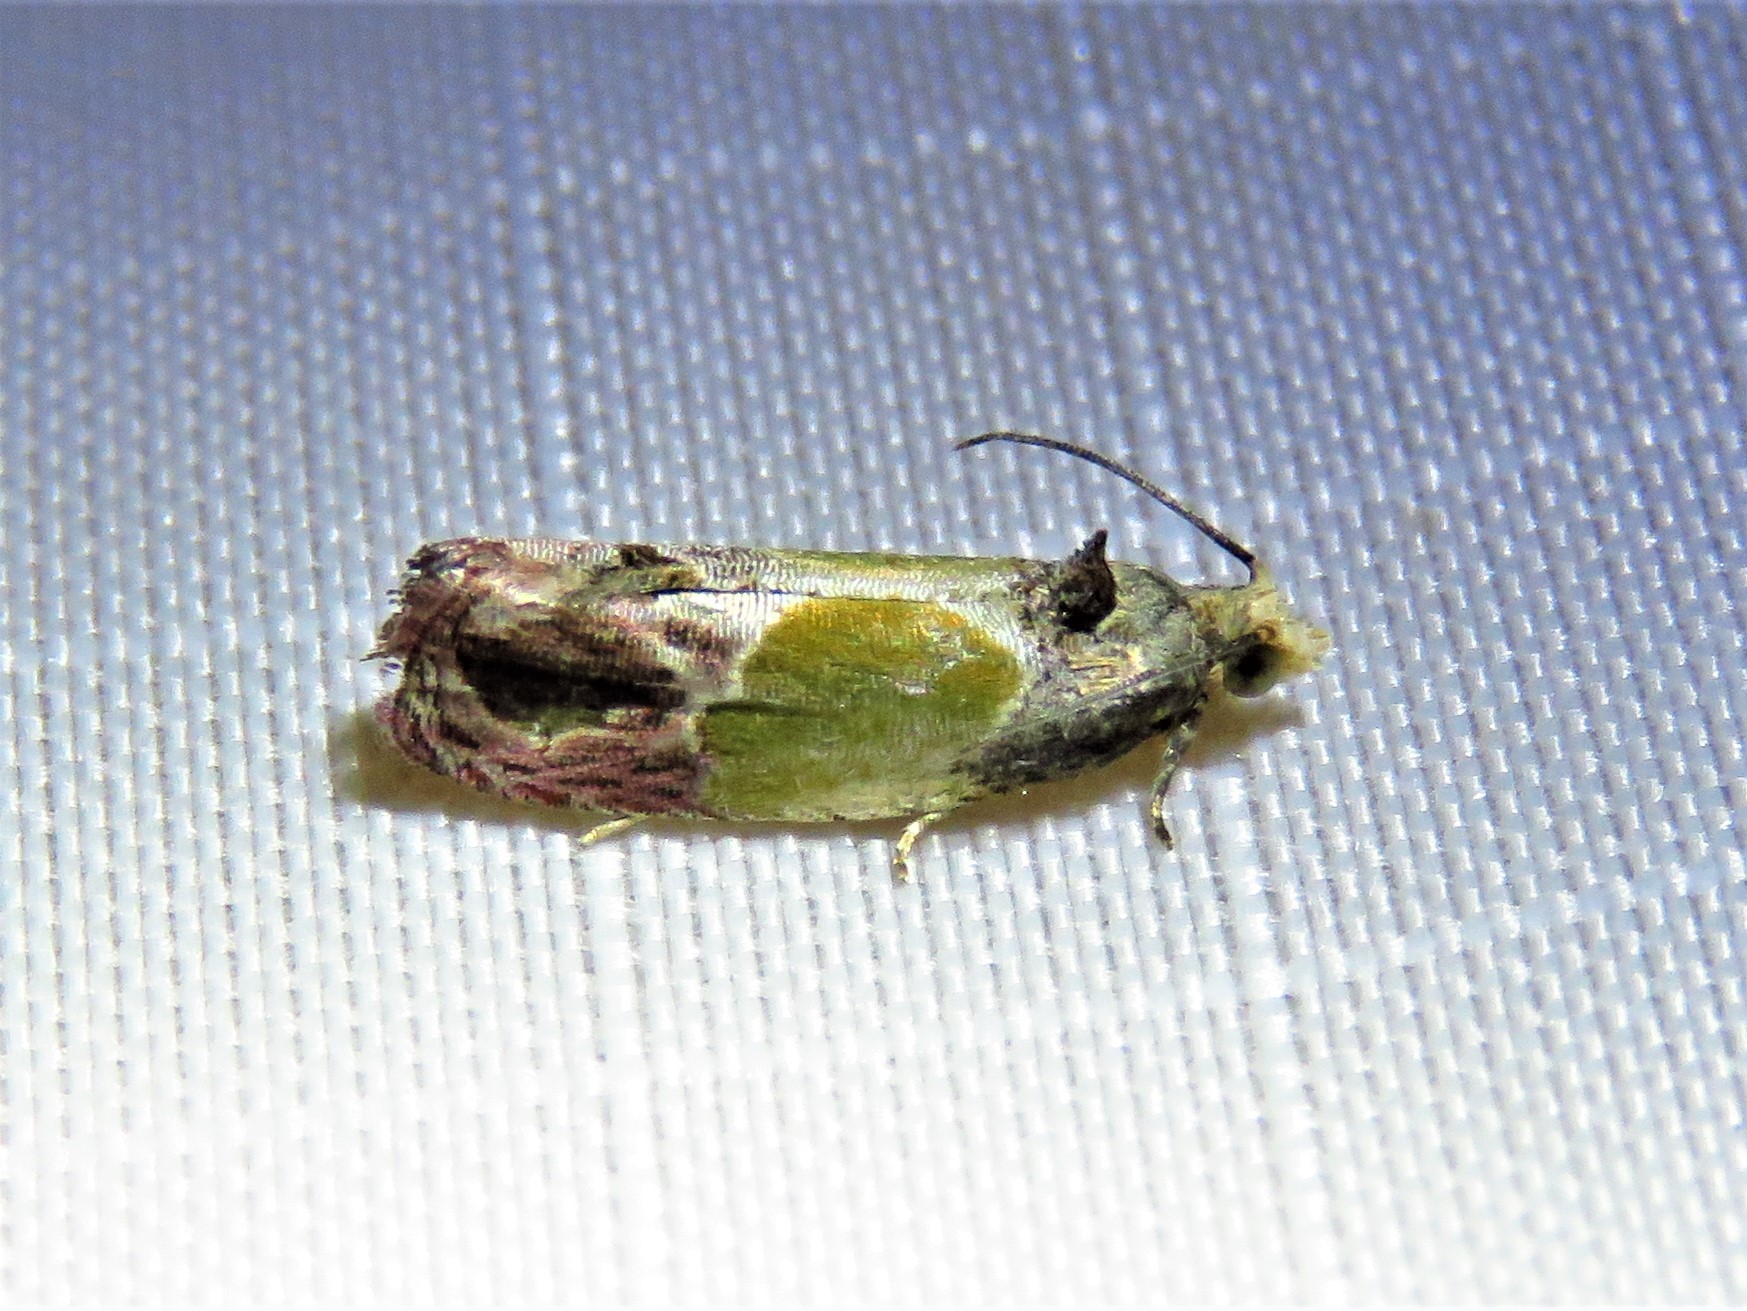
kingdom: Animalia
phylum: Arthropoda
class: Insecta
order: Lepidoptera
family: Tortricidae
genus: Eumarozia
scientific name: Eumarozia malachitana
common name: Sculptured moth
